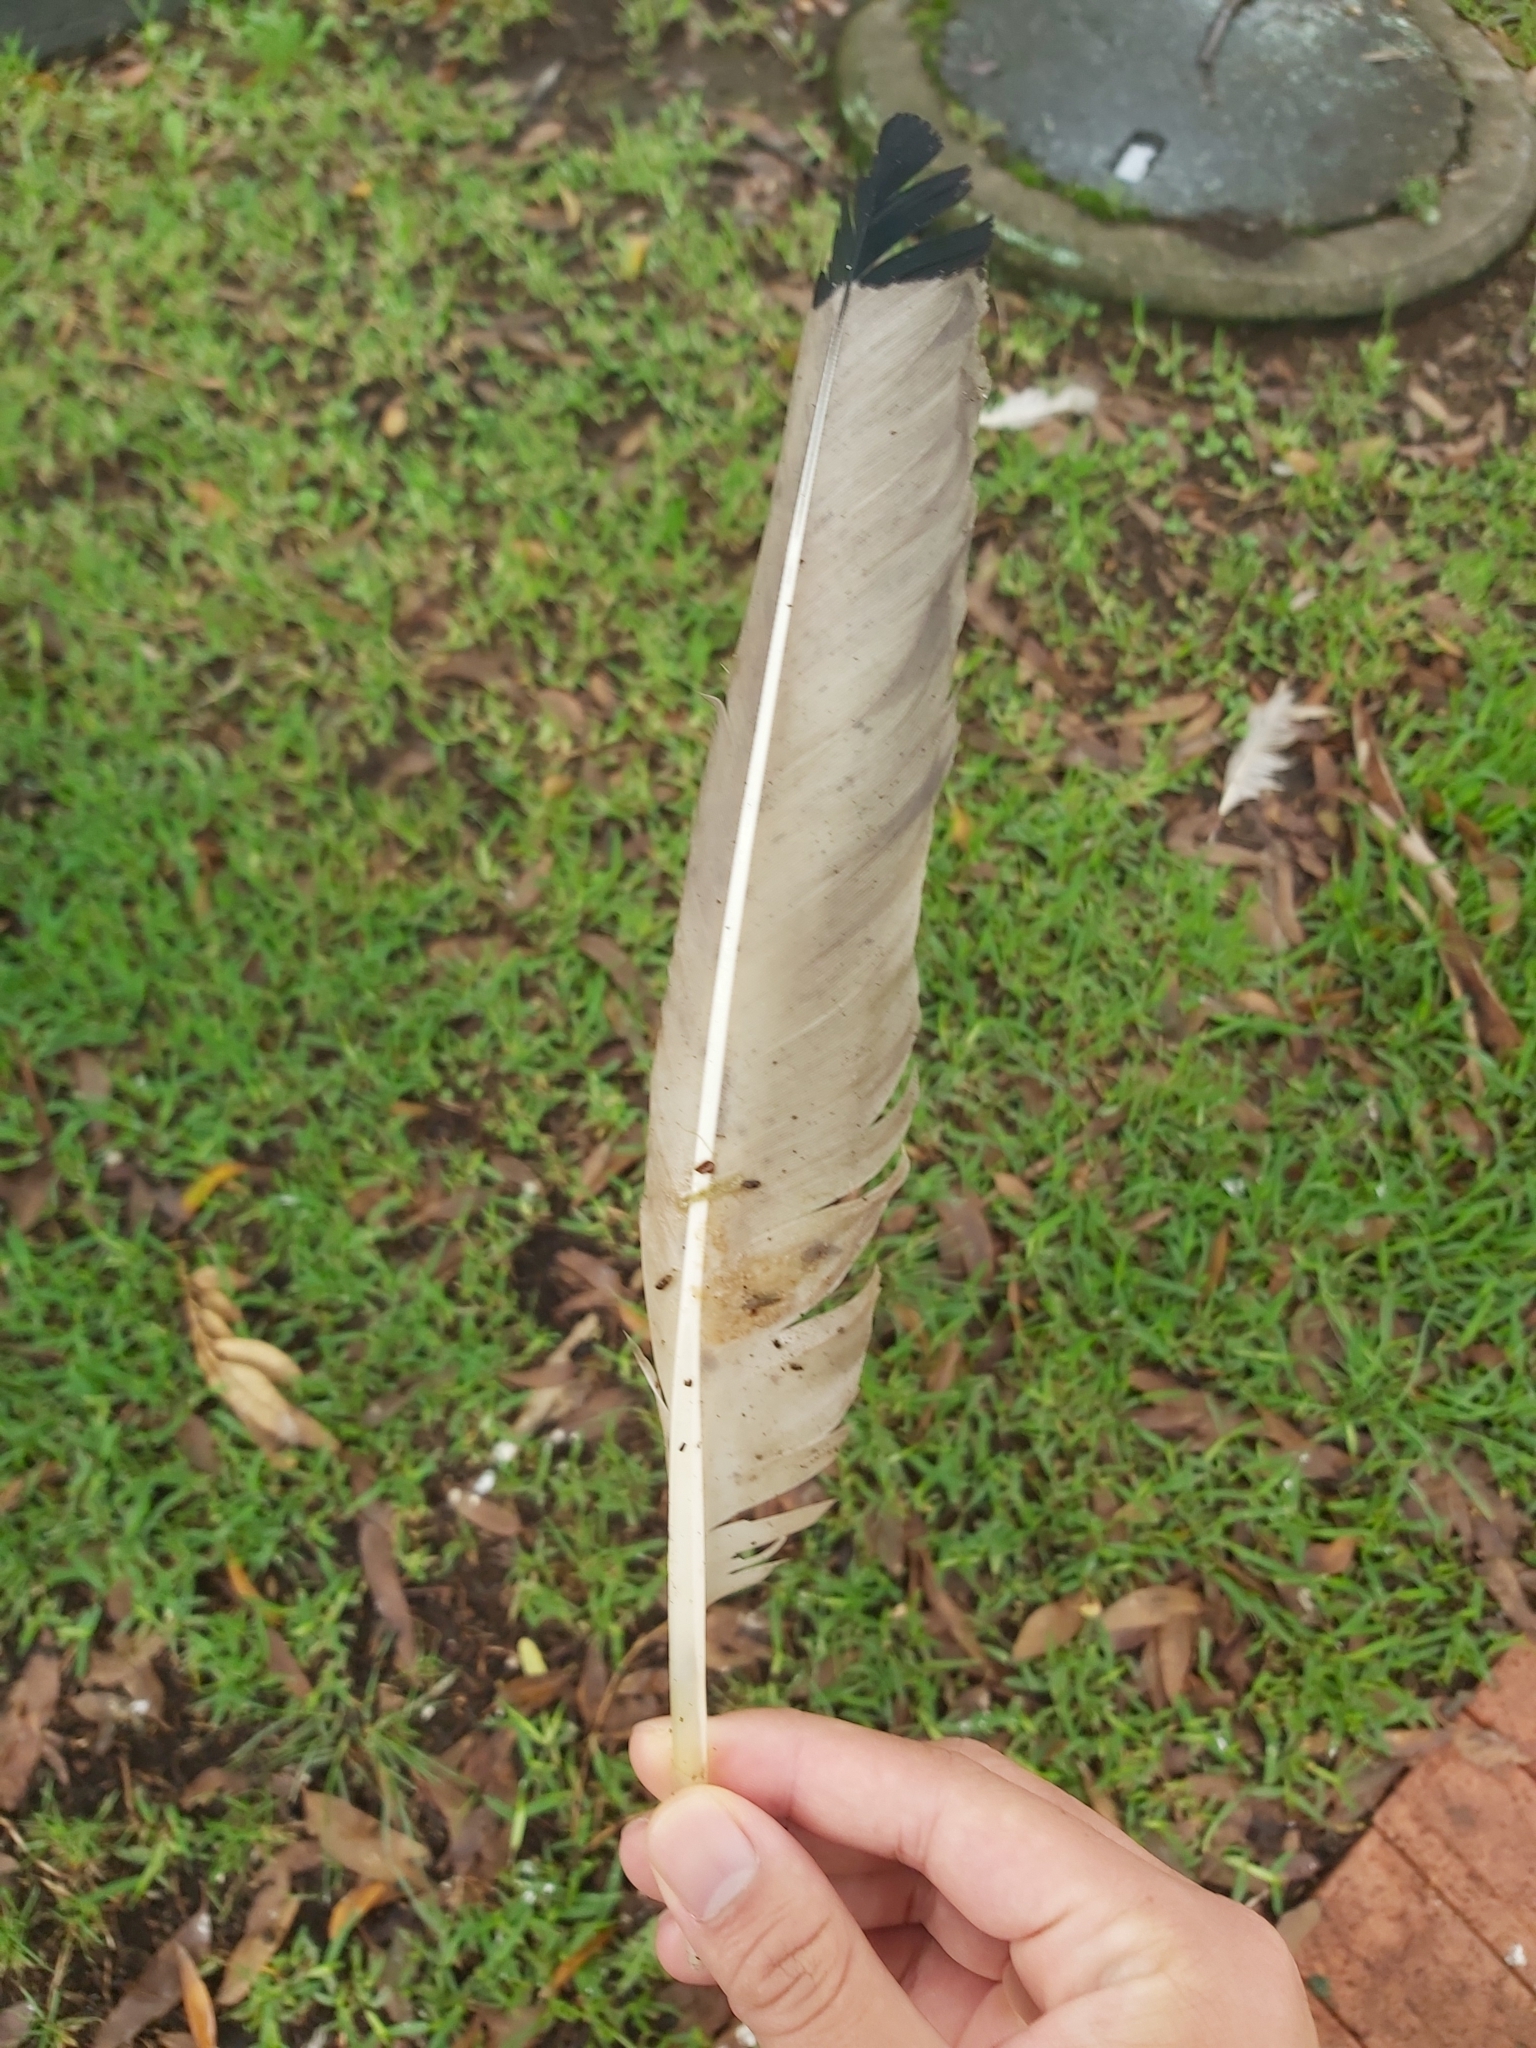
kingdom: Animalia
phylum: Chordata
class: Aves
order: Pelecaniformes
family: Threskiornithidae
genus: Threskiornis
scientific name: Threskiornis molucca
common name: Australian white ibis
